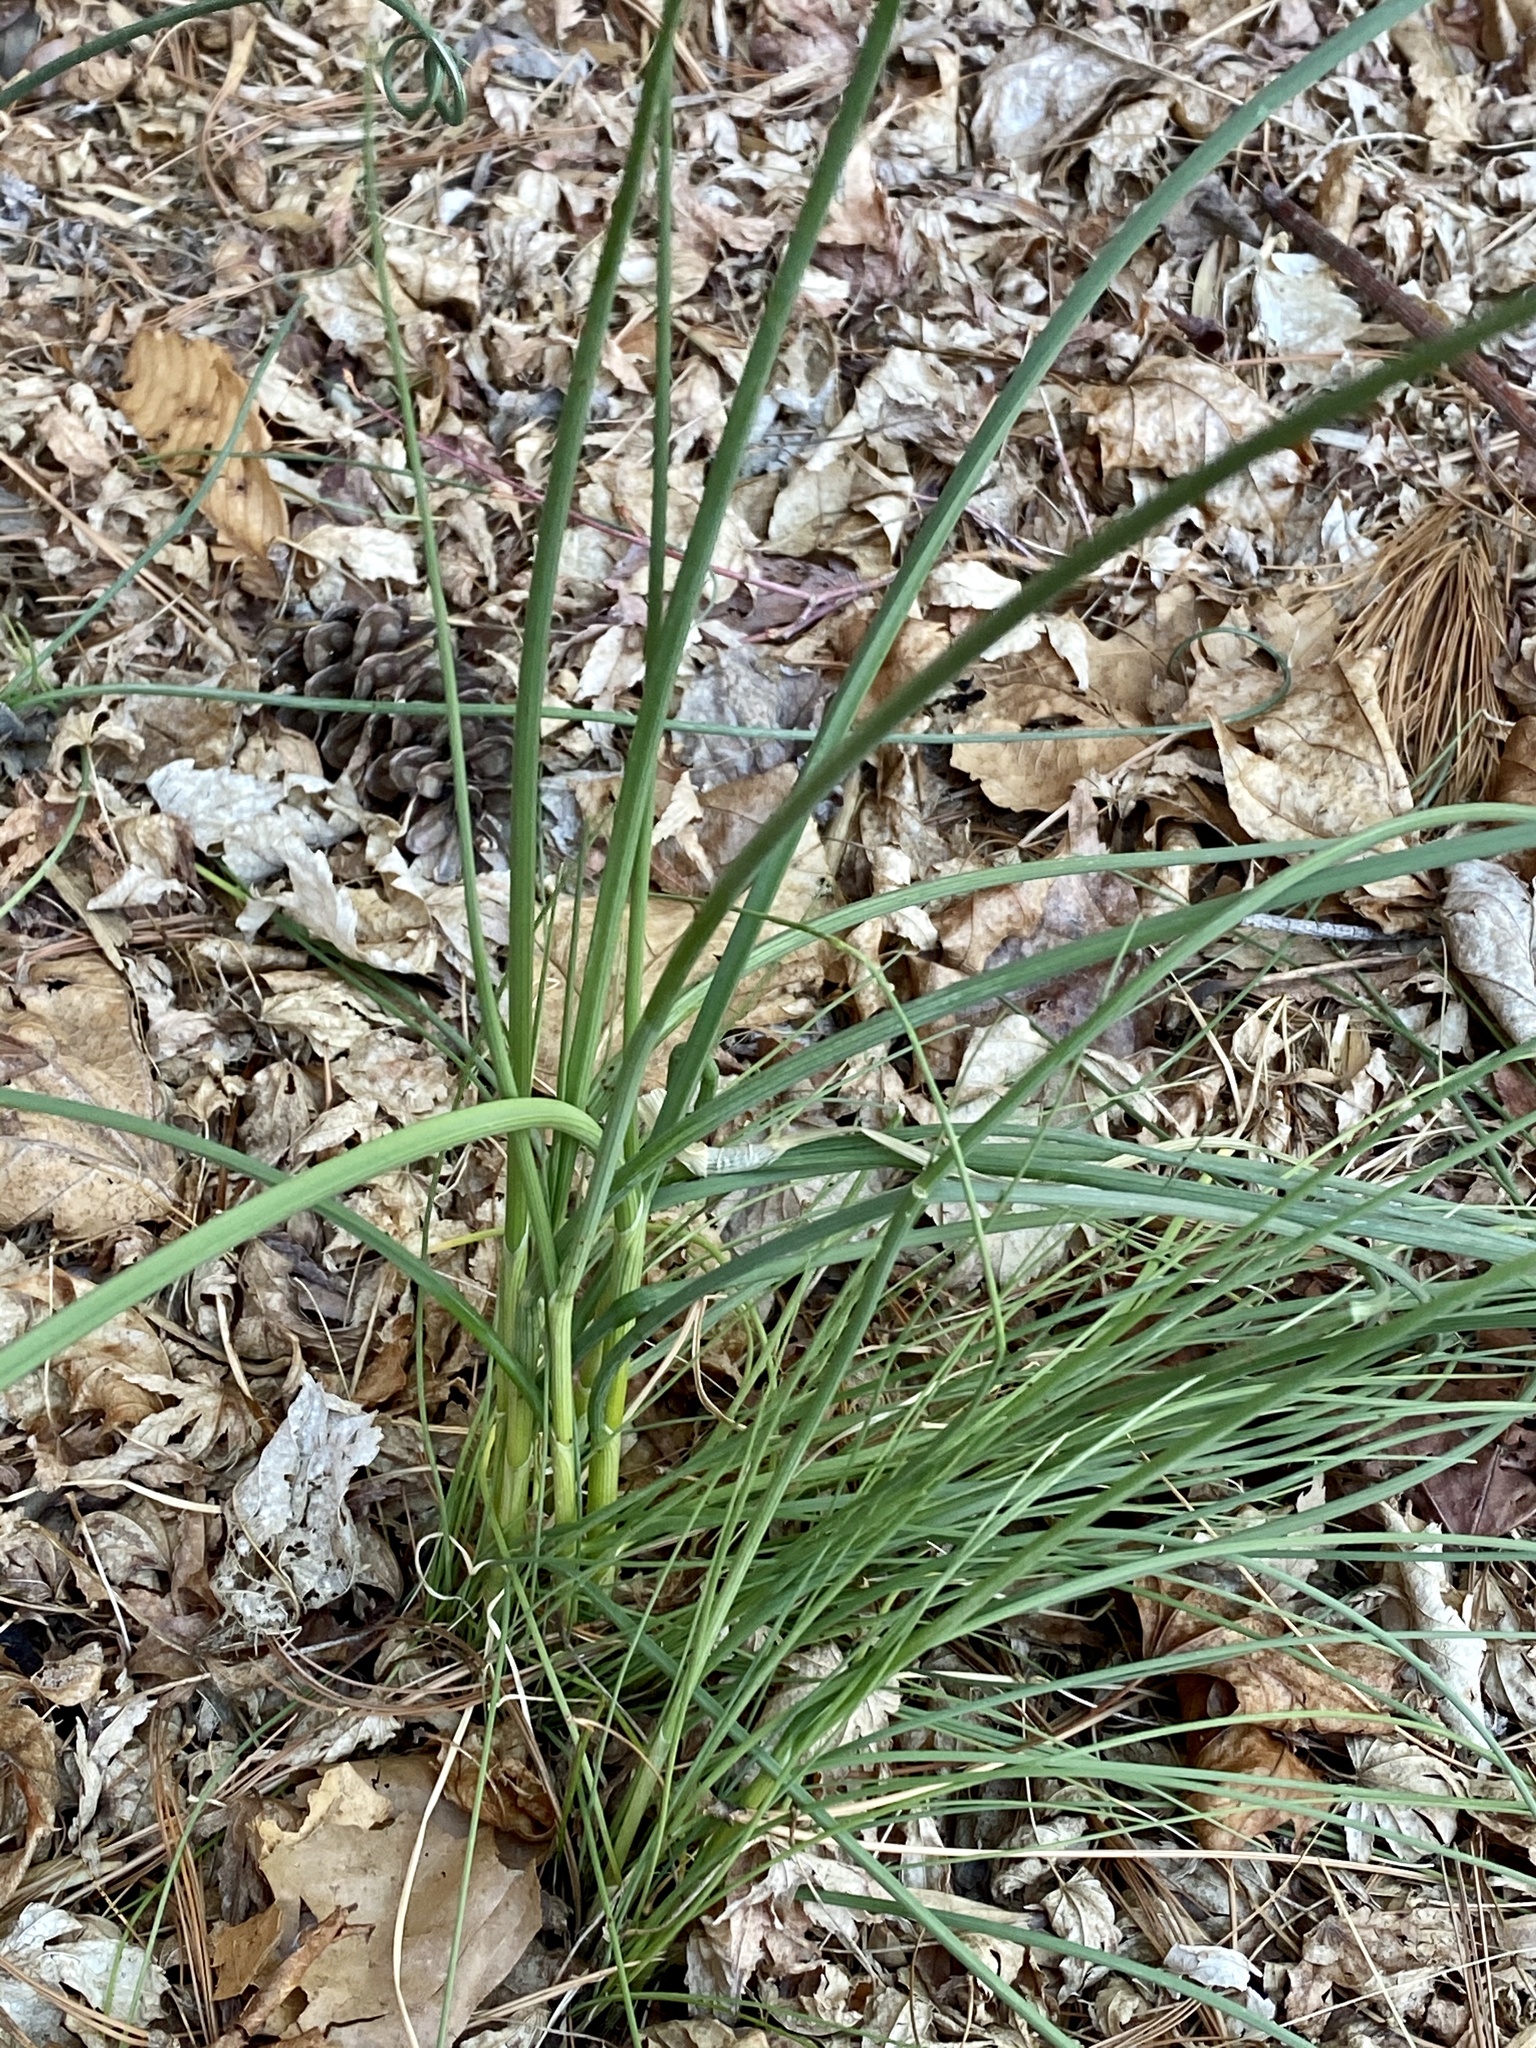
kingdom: Plantae
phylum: Tracheophyta
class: Liliopsida
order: Asparagales
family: Amaryllidaceae
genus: Allium
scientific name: Allium vineale
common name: Crow garlic
